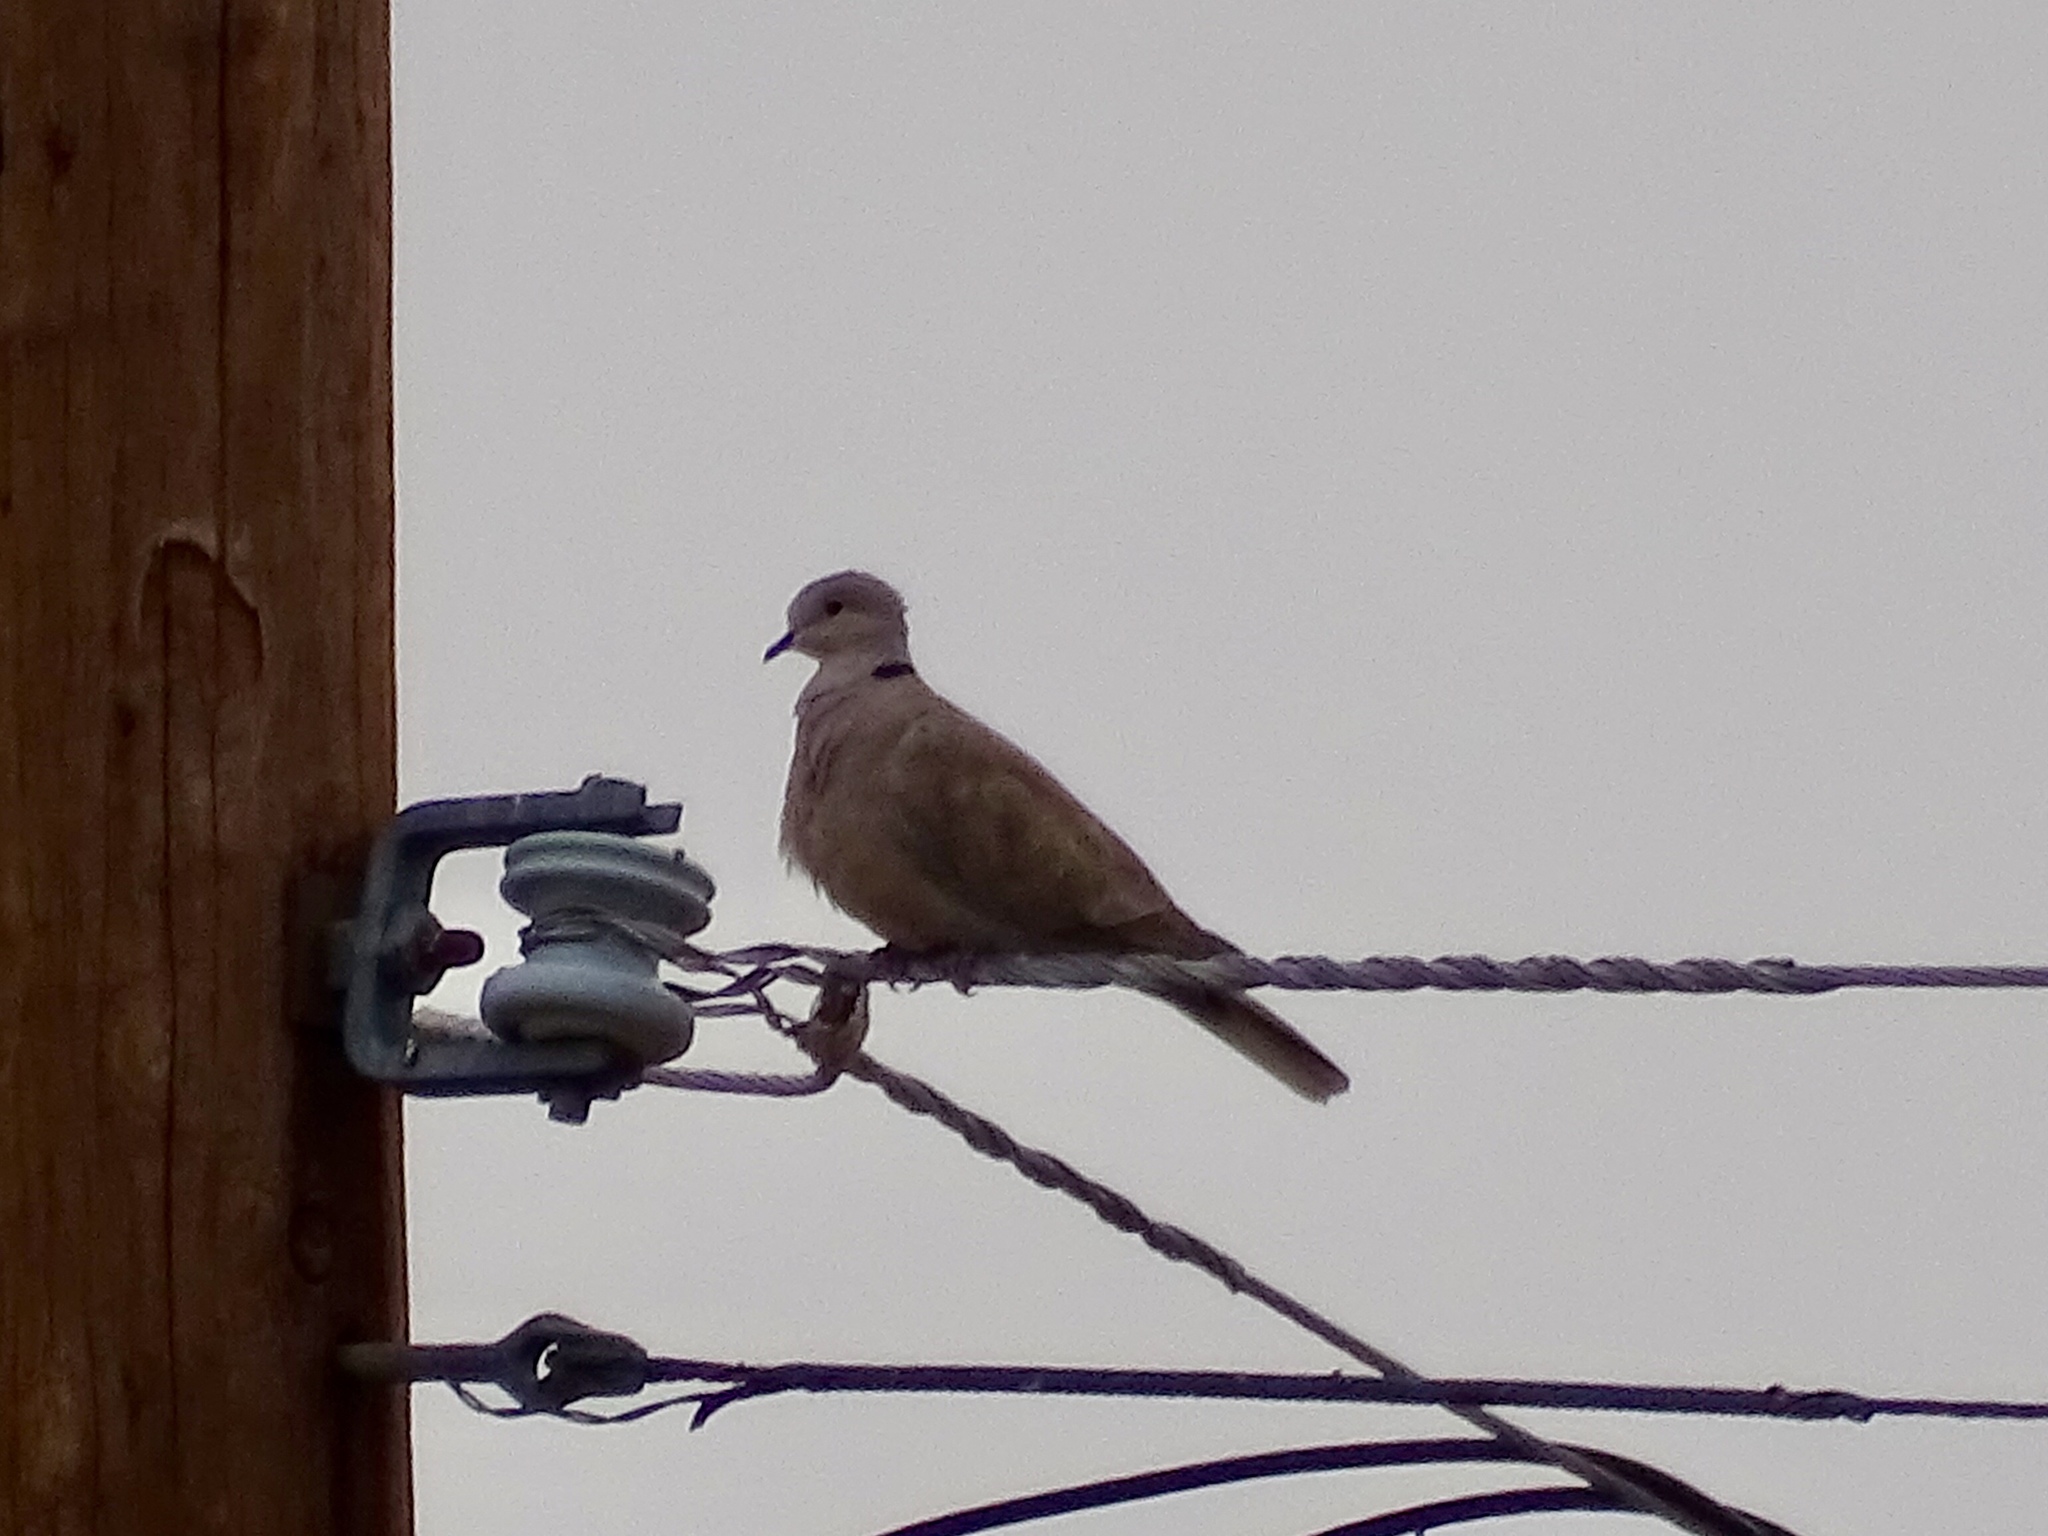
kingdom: Animalia
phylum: Chordata
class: Aves
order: Columbiformes
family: Columbidae
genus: Streptopelia
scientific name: Streptopelia decaocto
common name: Eurasian collared dove
